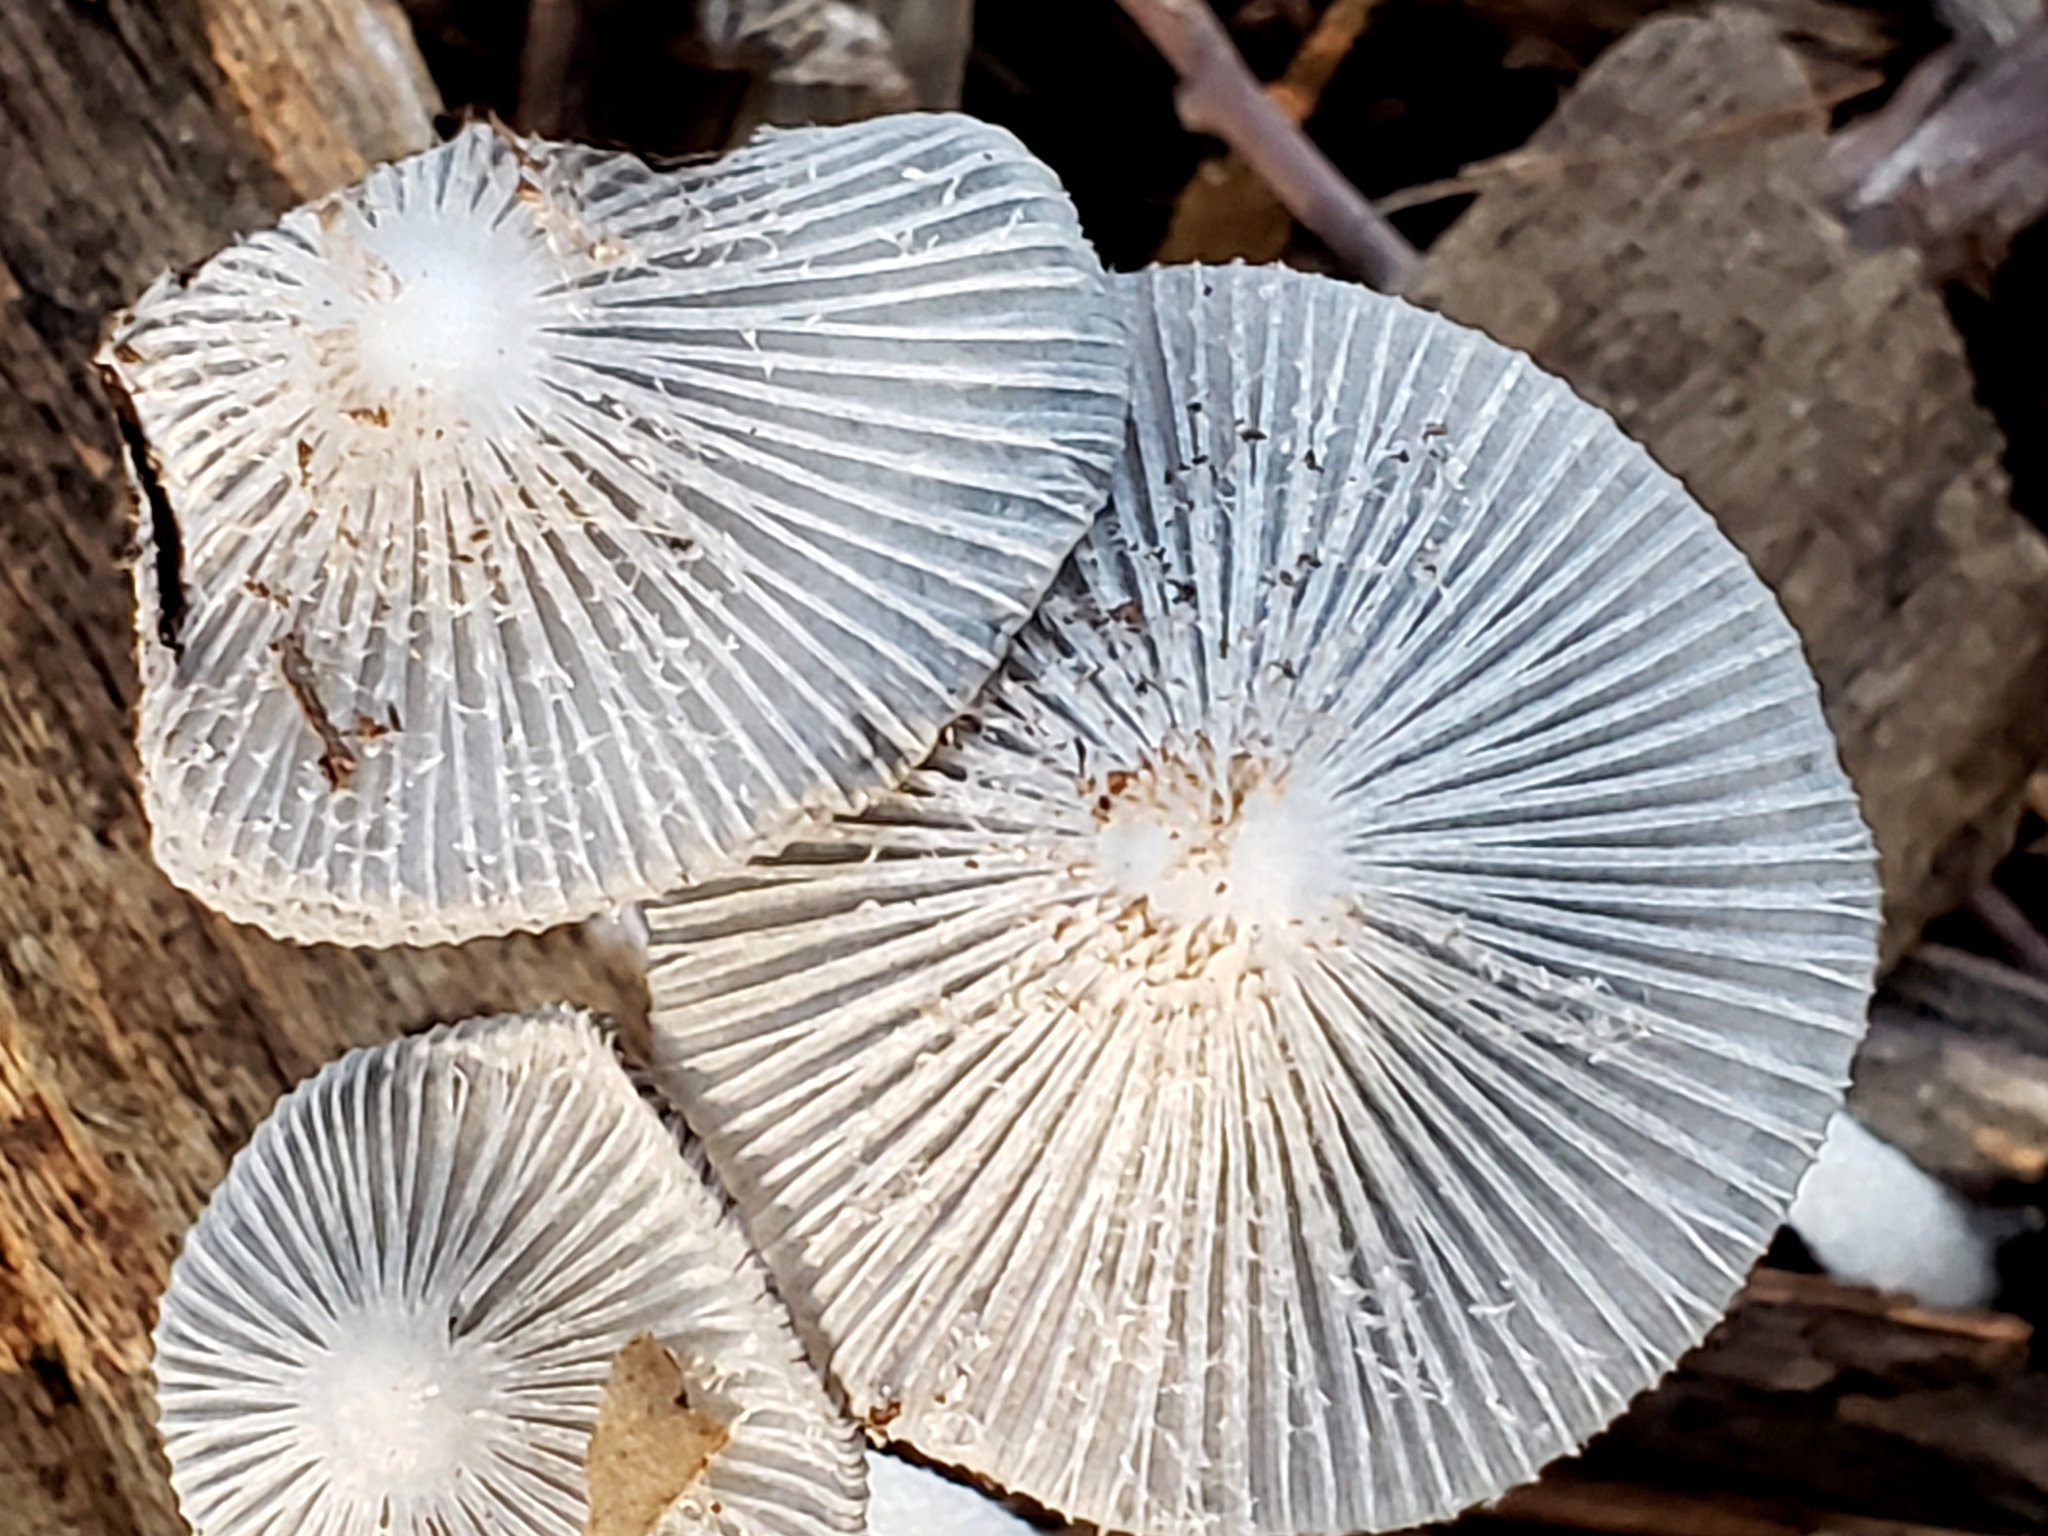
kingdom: Fungi
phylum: Basidiomycota
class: Agaricomycetes
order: Agaricales
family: Psathyrellaceae
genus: Parasola
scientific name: Parasola plicatilis
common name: Pleated inkcap
